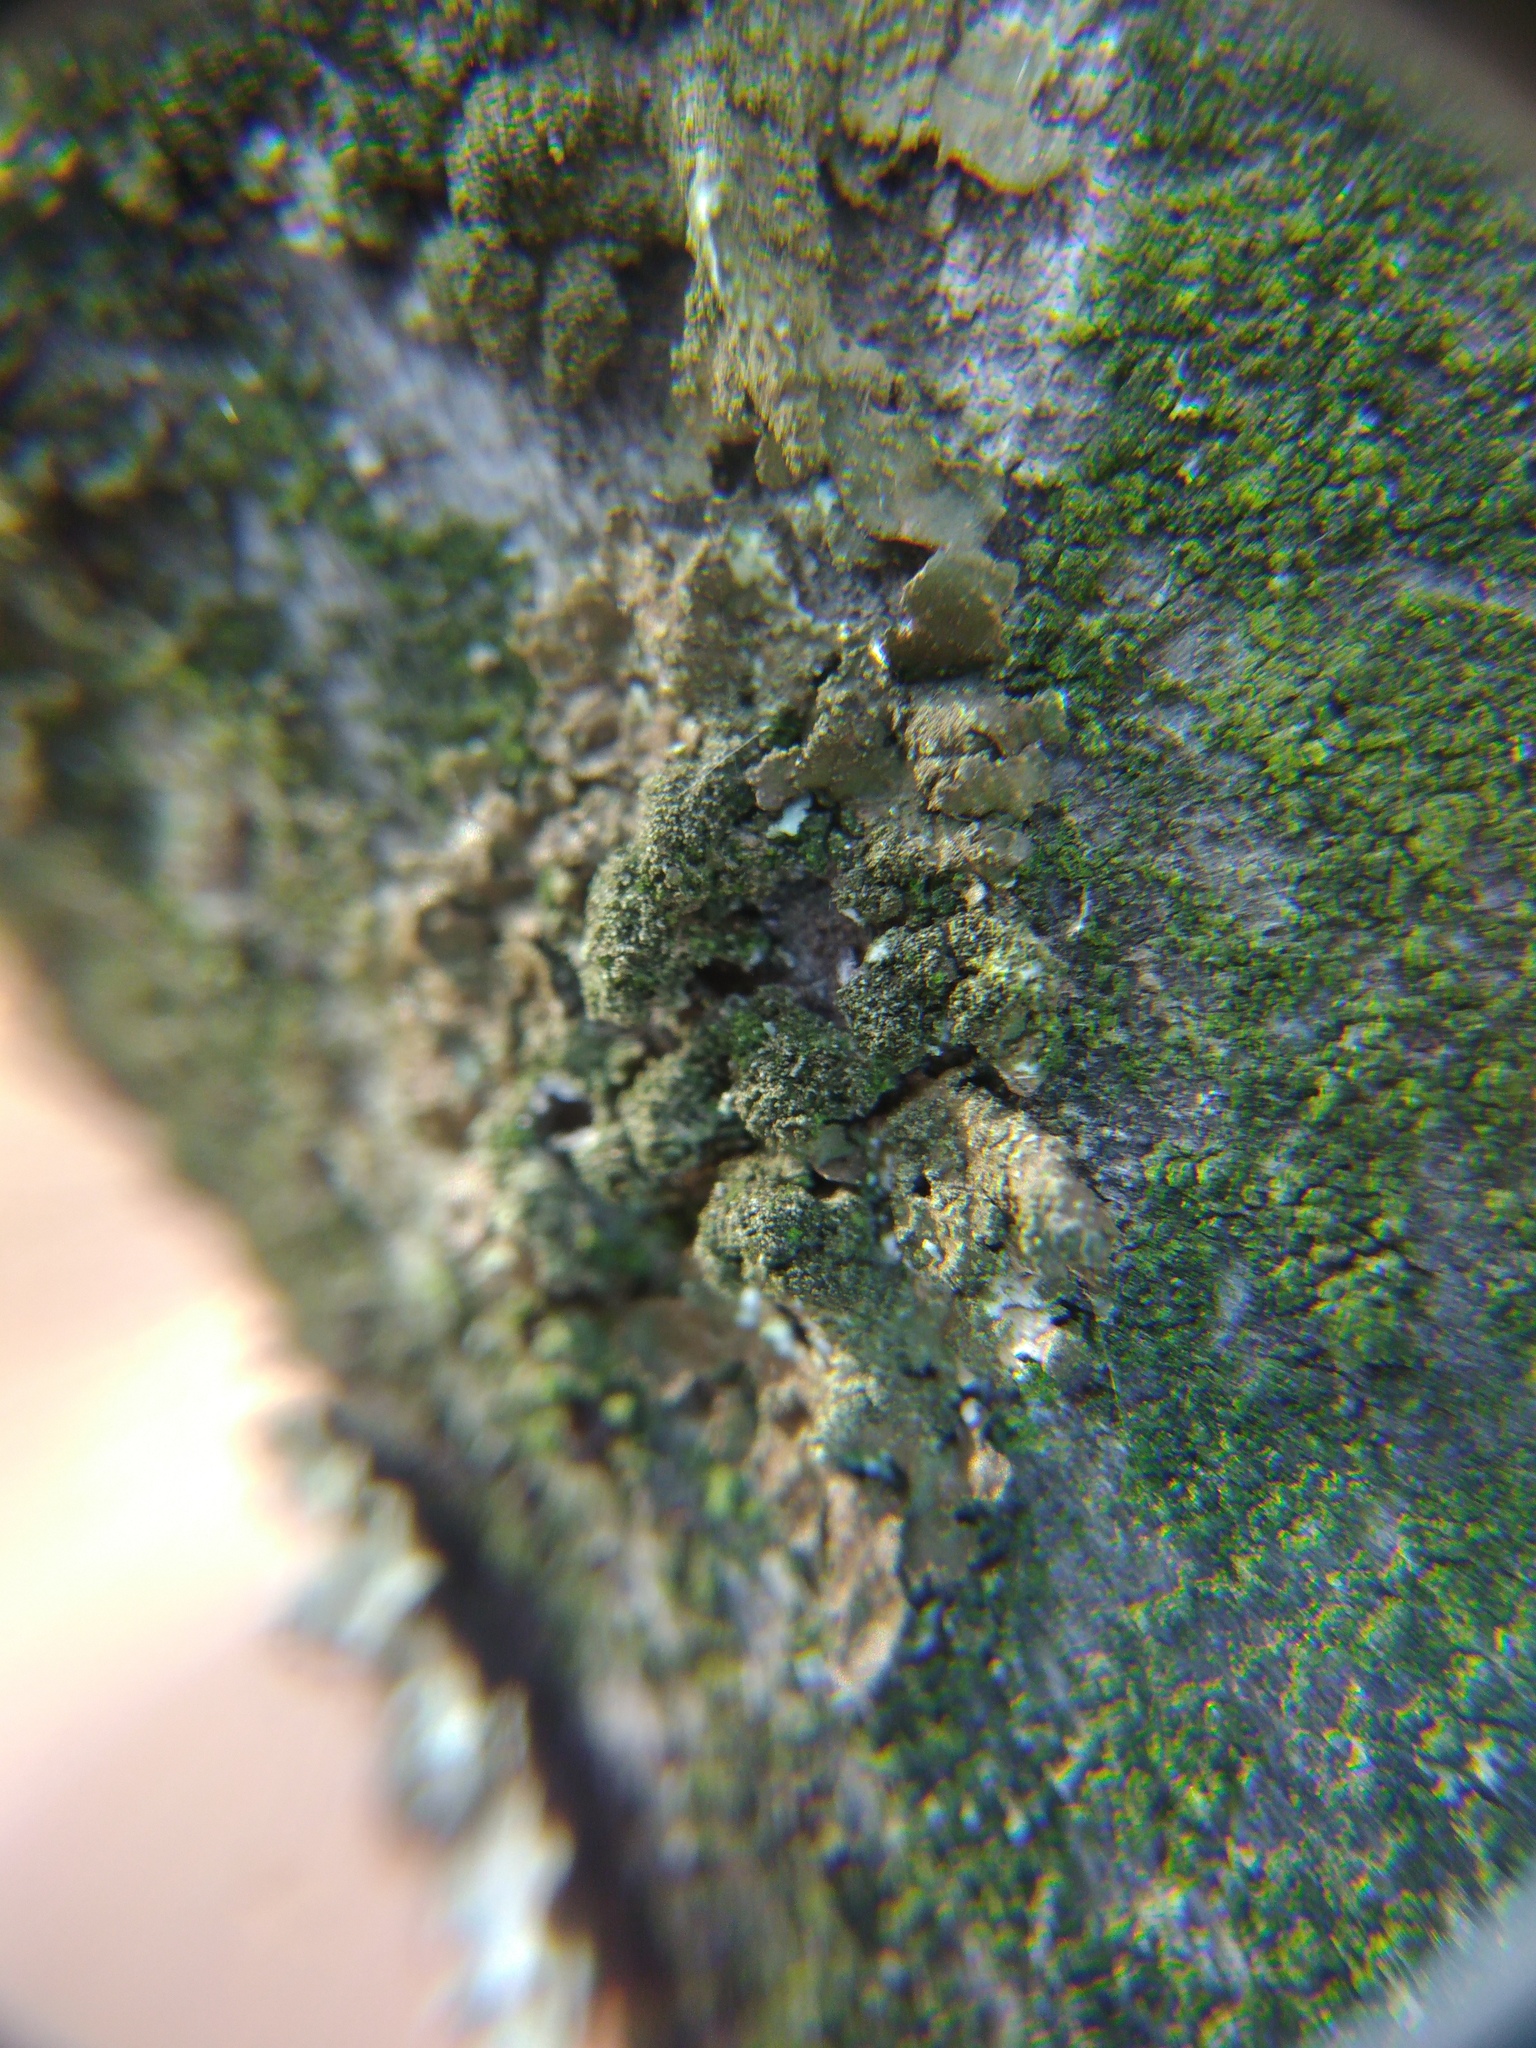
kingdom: Fungi
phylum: Ascomycota
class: Lecanoromycetes
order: Lecanorales
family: Parmeliaceae
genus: Melanelixia
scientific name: Melanelixia subaurifera
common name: Abraded camouflage lichen
